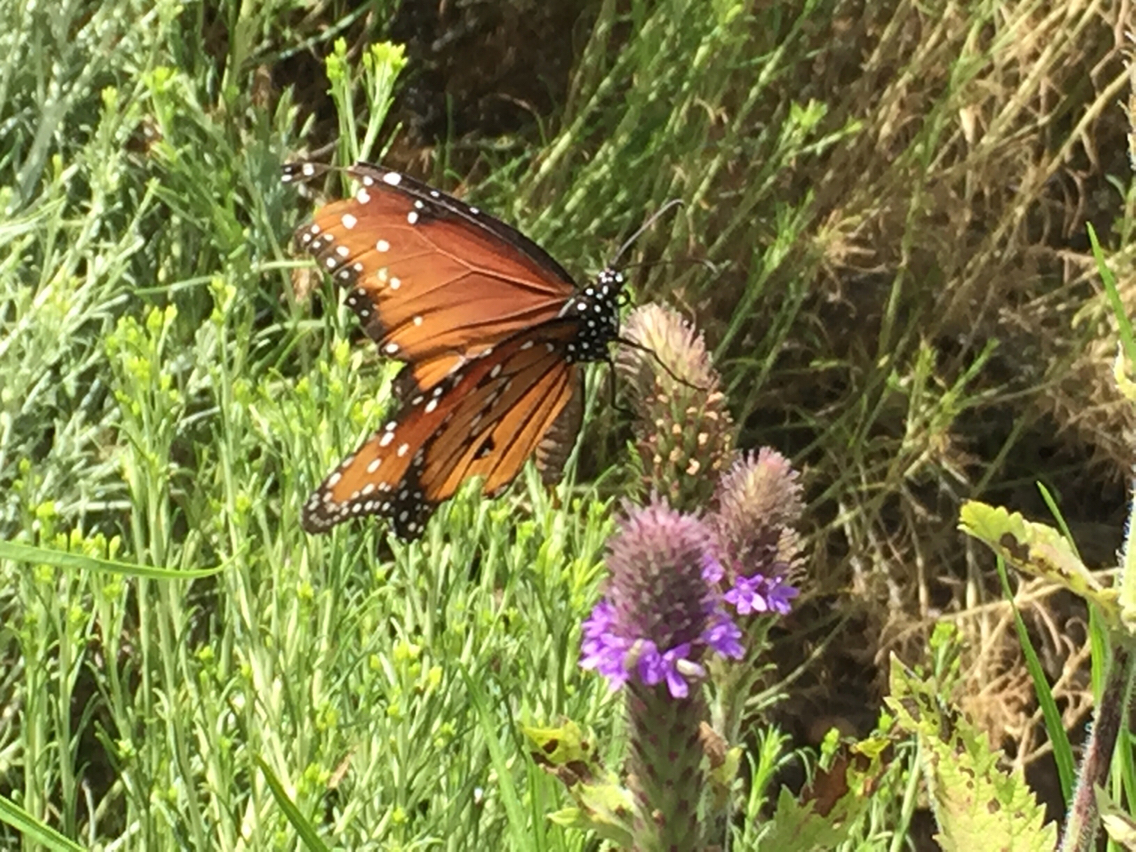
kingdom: Animalia
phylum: Arthropoda
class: Insecta
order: Lepidoptera
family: Nymphalidae
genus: Danaus
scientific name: Danaus gilippus
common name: Queen
